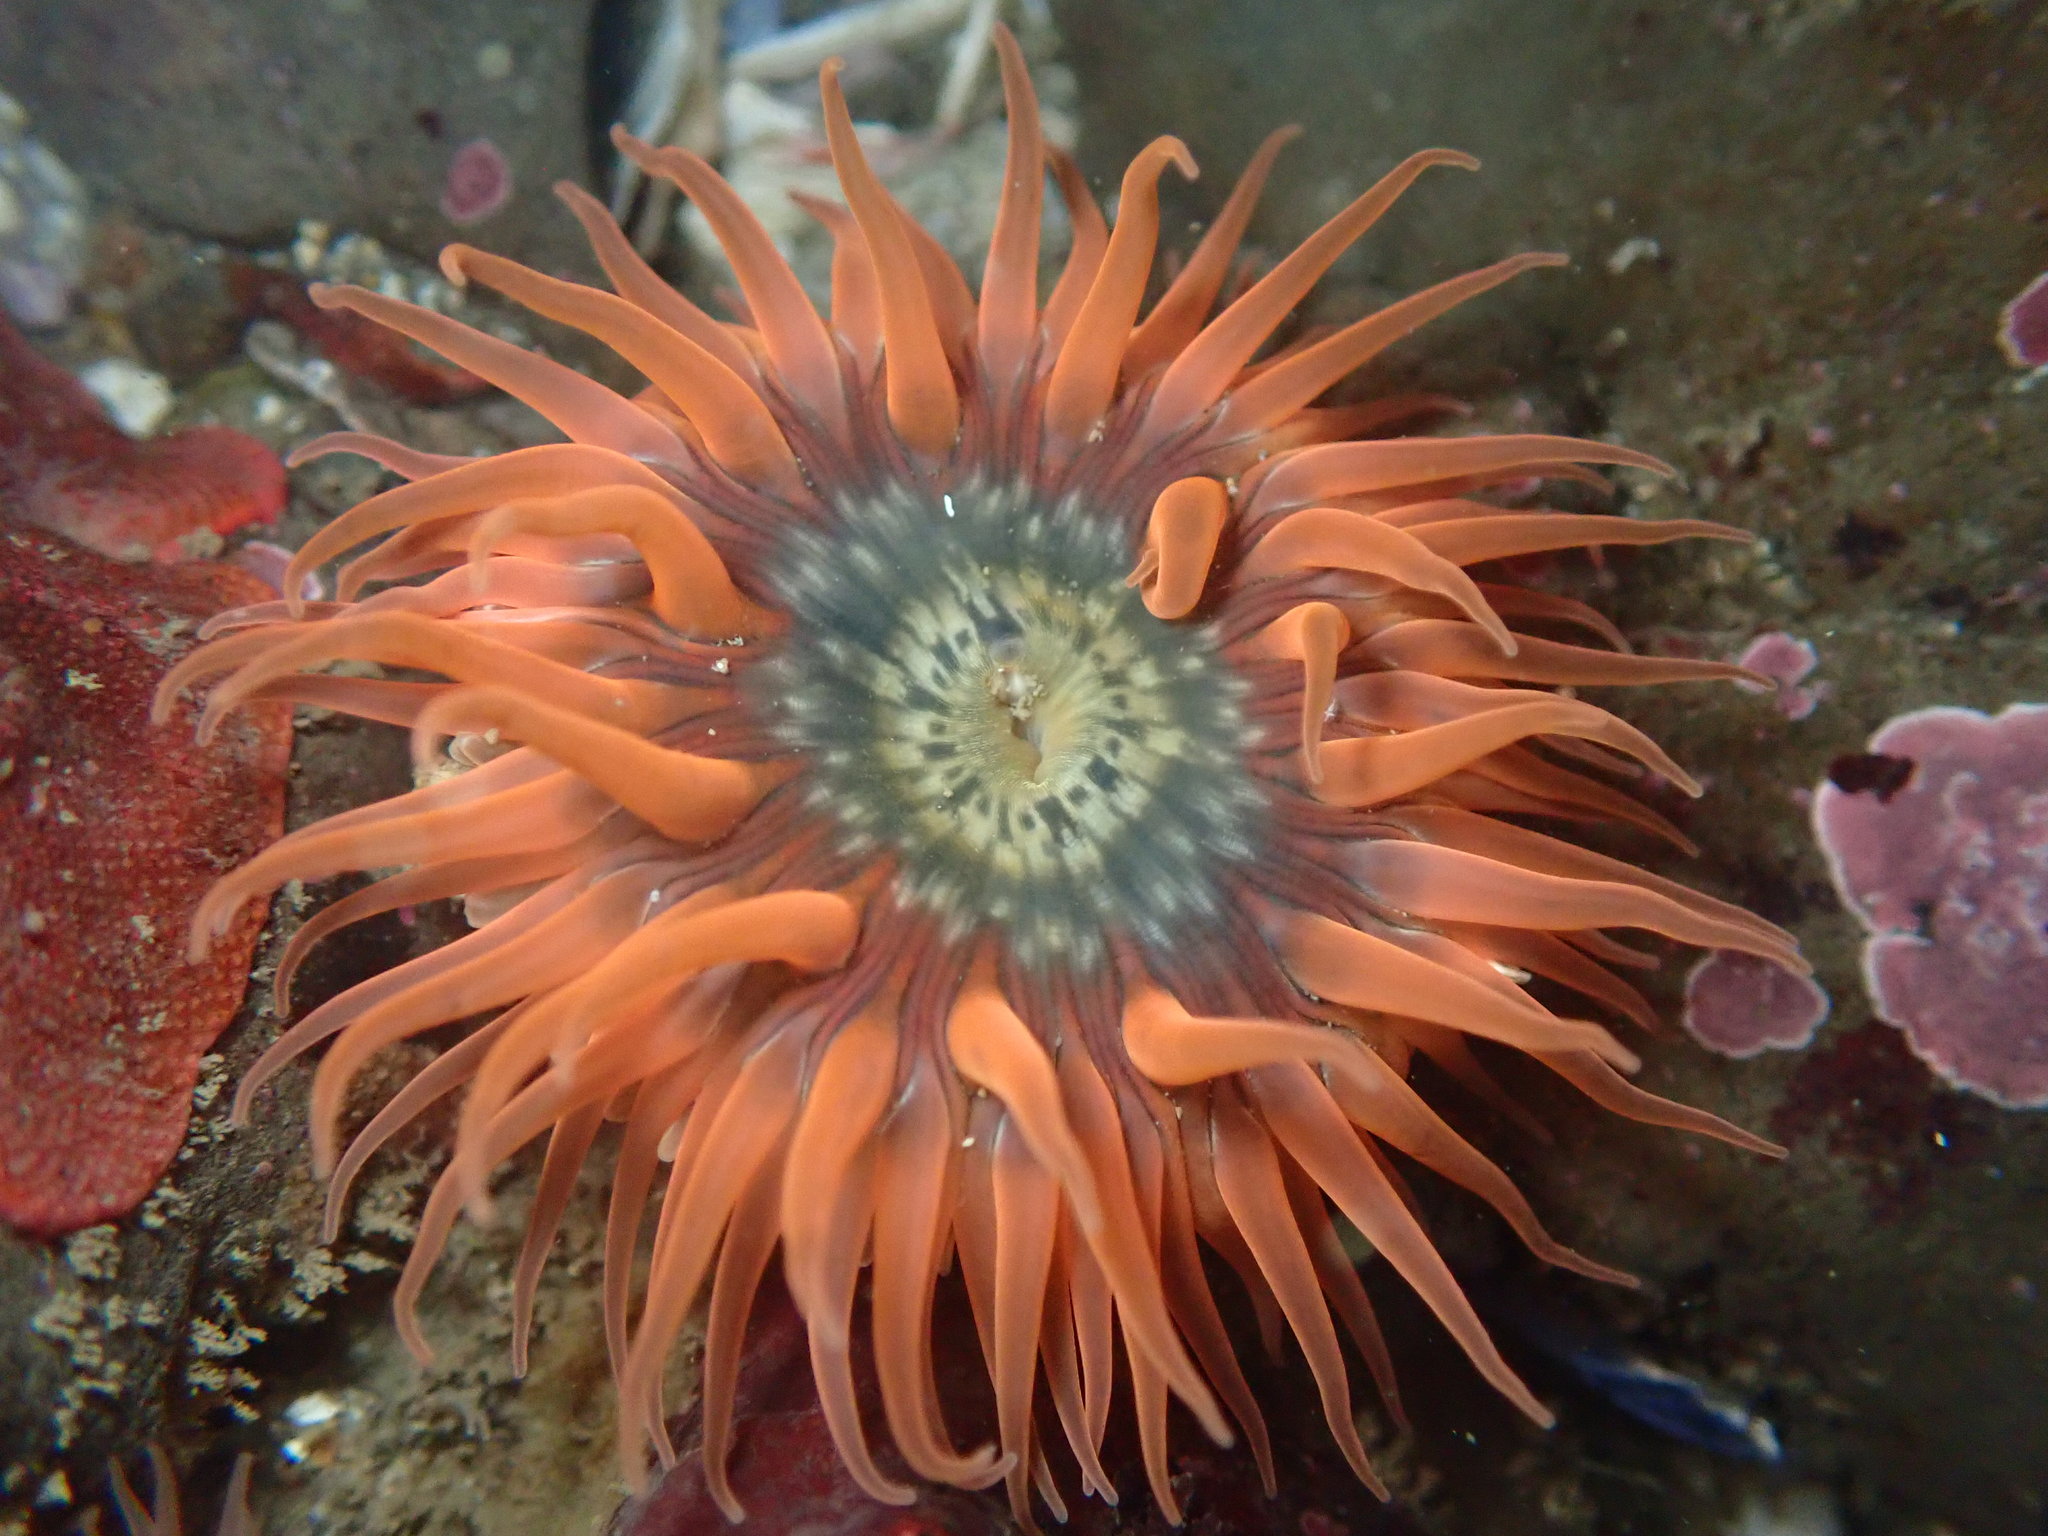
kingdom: Animalia
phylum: Cnidaria
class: Anthozoa
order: Actiniaria
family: Actiniidae
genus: Anthopleura
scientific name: Anthopleura artemisia
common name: Buried sea anemone
